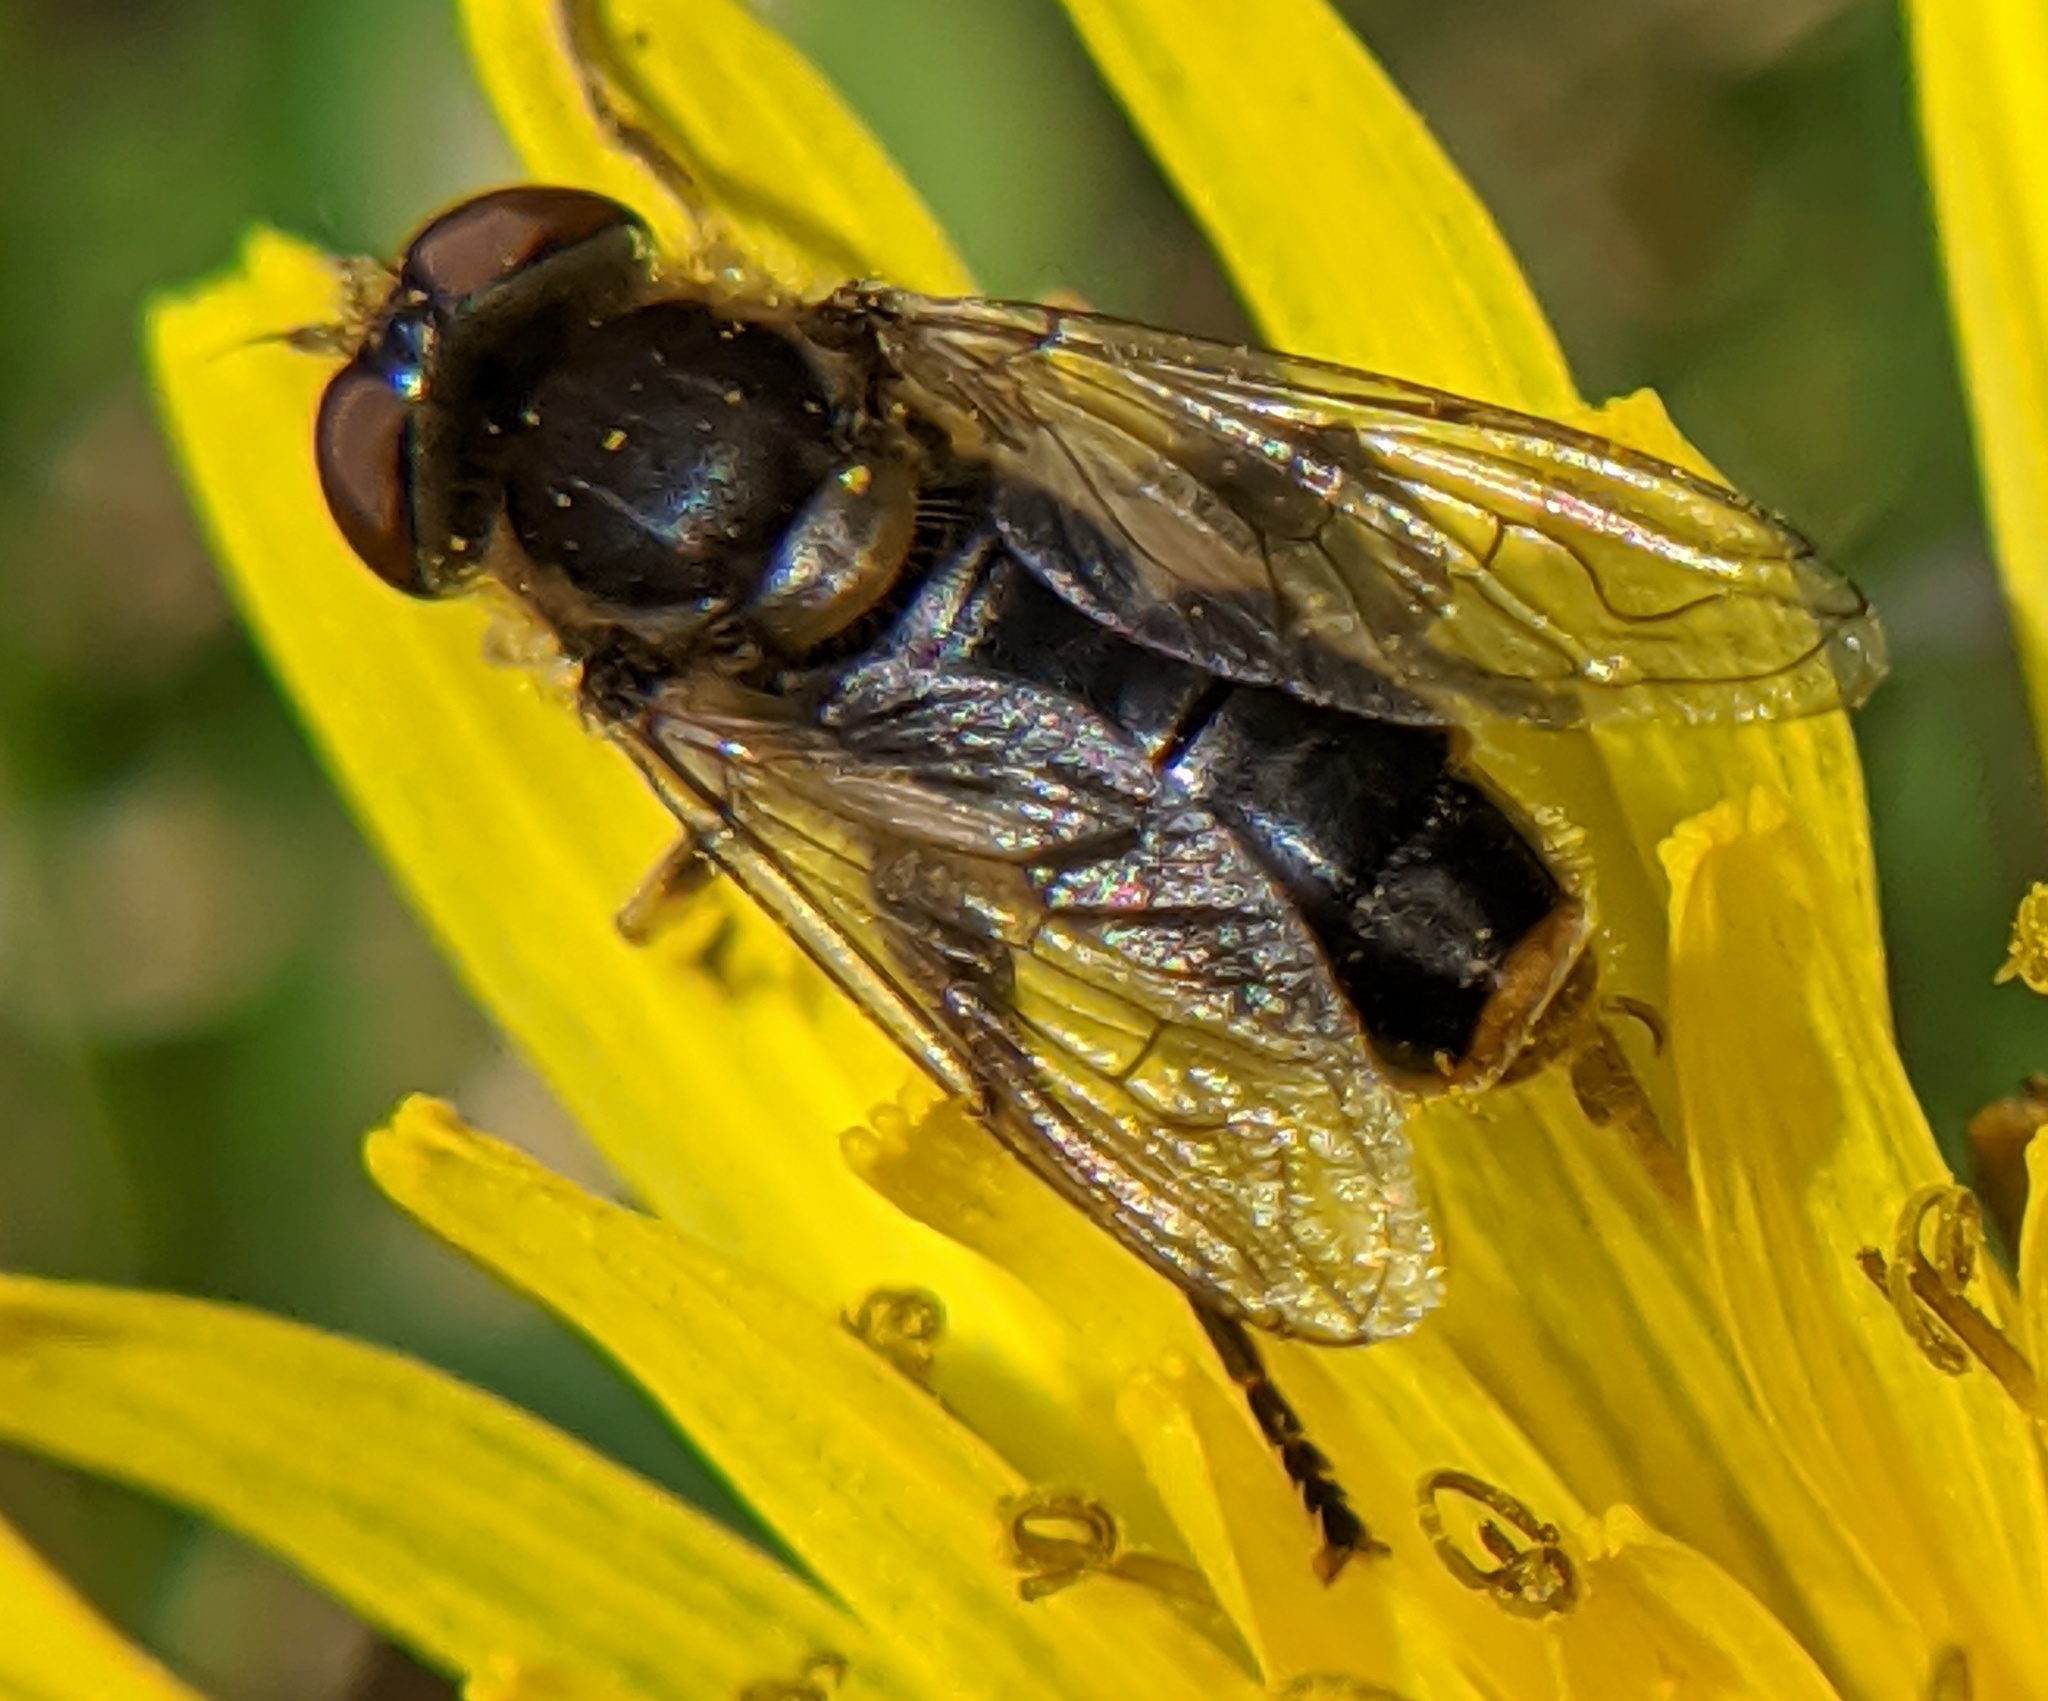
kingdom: Animalia
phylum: Arthropoda
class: Insecta
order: Diptera
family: Syrphidae
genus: Anasimyia
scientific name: Anasimyia bilinearis
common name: Two-lined swamp fly
